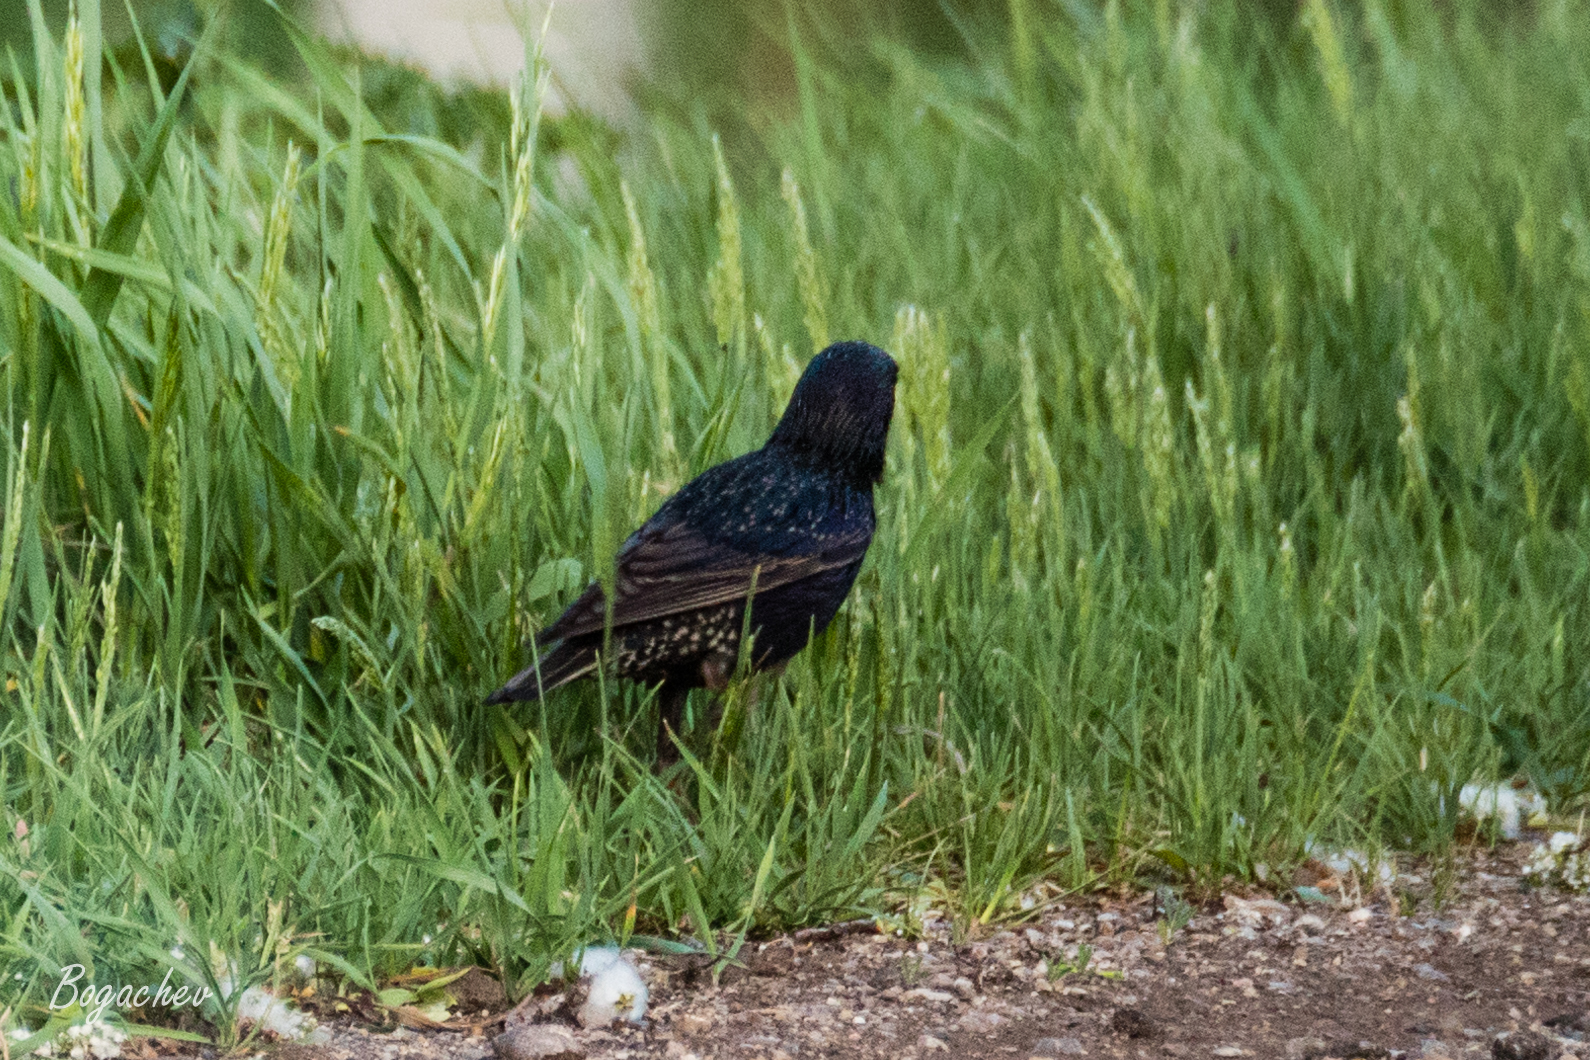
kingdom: Animalia
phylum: Chordata
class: Aves
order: Passeriformes
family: Sturnidae
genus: Sturnus
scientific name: Sturnus vulgaris
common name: Common starling
